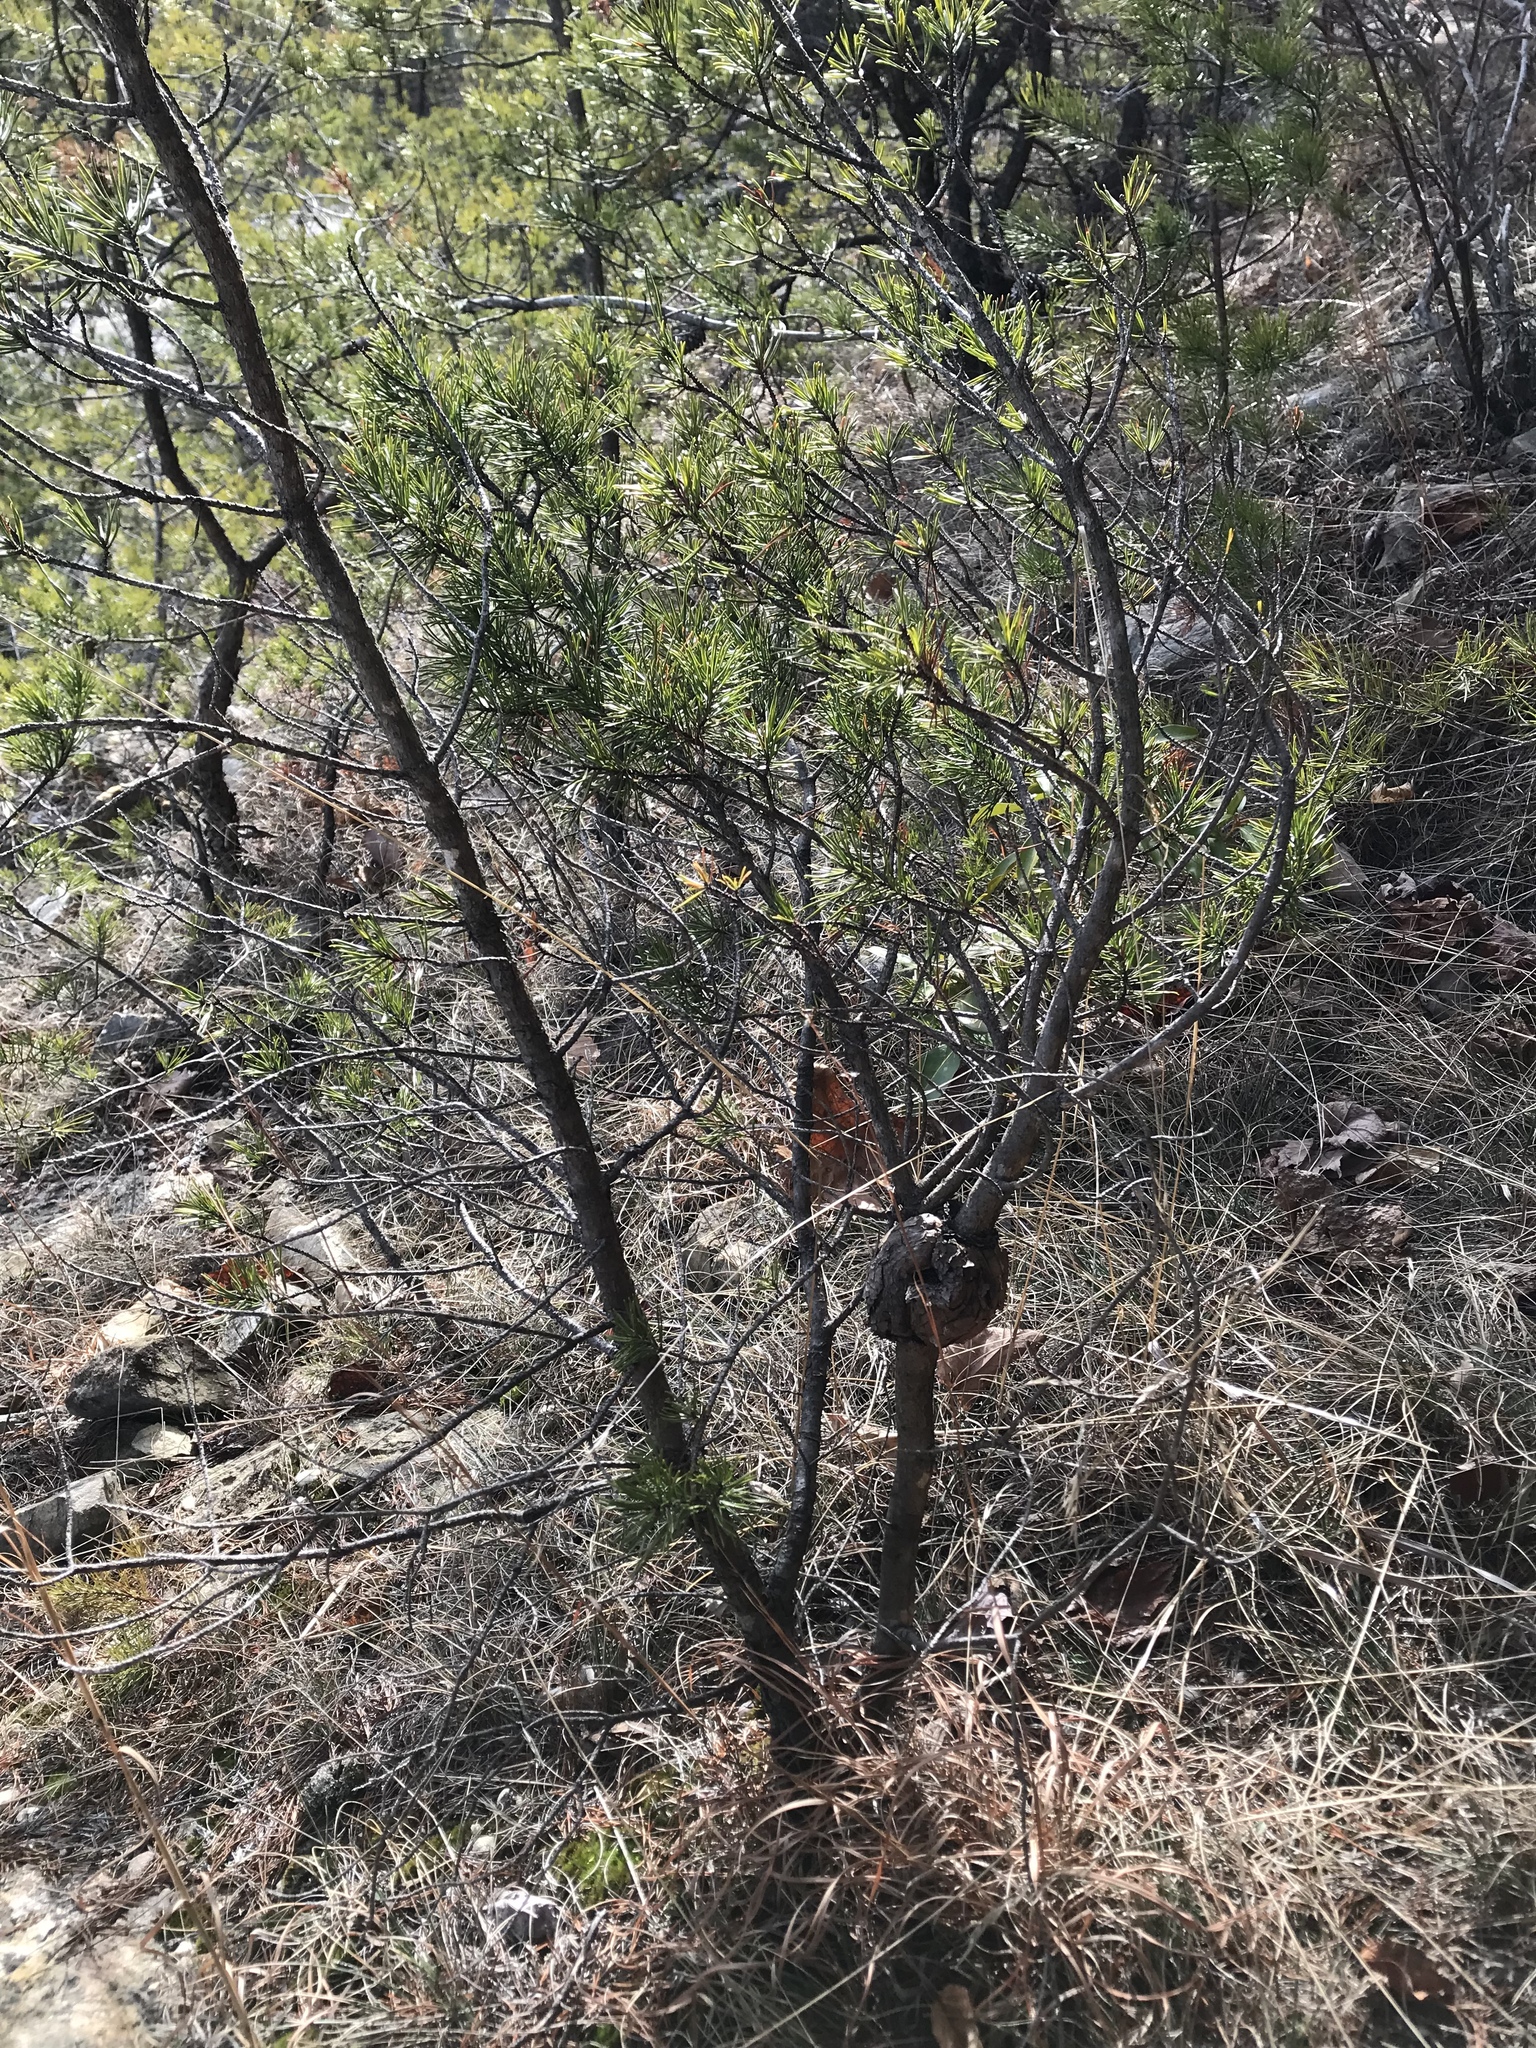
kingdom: Fungi
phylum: Basidiomycota
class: Pucciniomycetes
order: Pucciniales
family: Cronartiaceae
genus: Cronartium
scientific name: Cronartium quercuum
